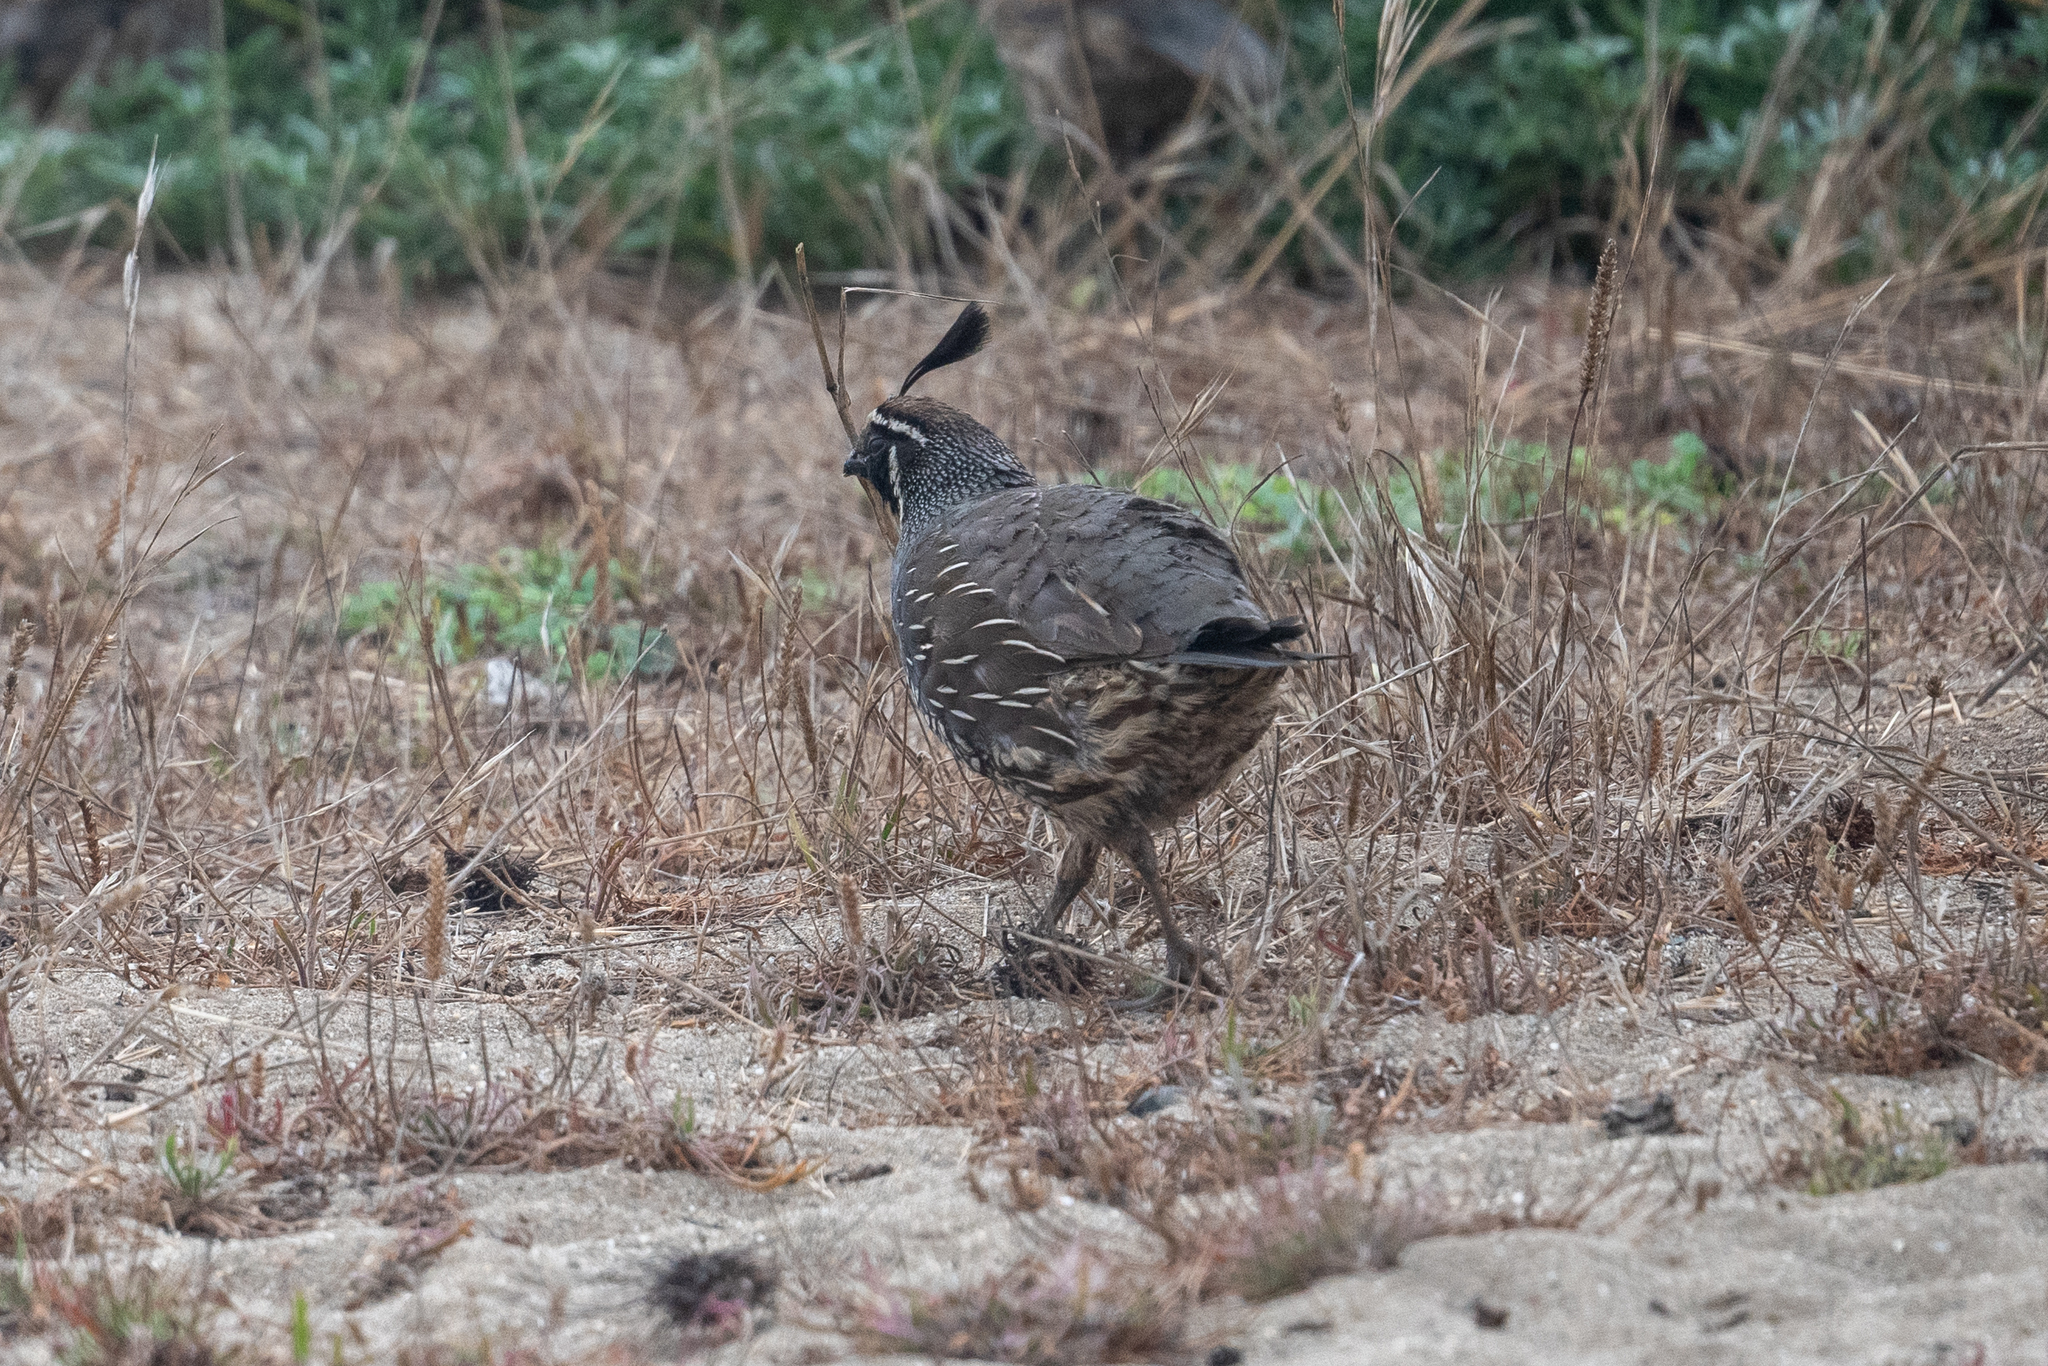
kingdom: Animalia
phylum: Chordata
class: Aves
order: Galliformes
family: Odontophoridae
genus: Callipepla
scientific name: Callipepla californica
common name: California quail
